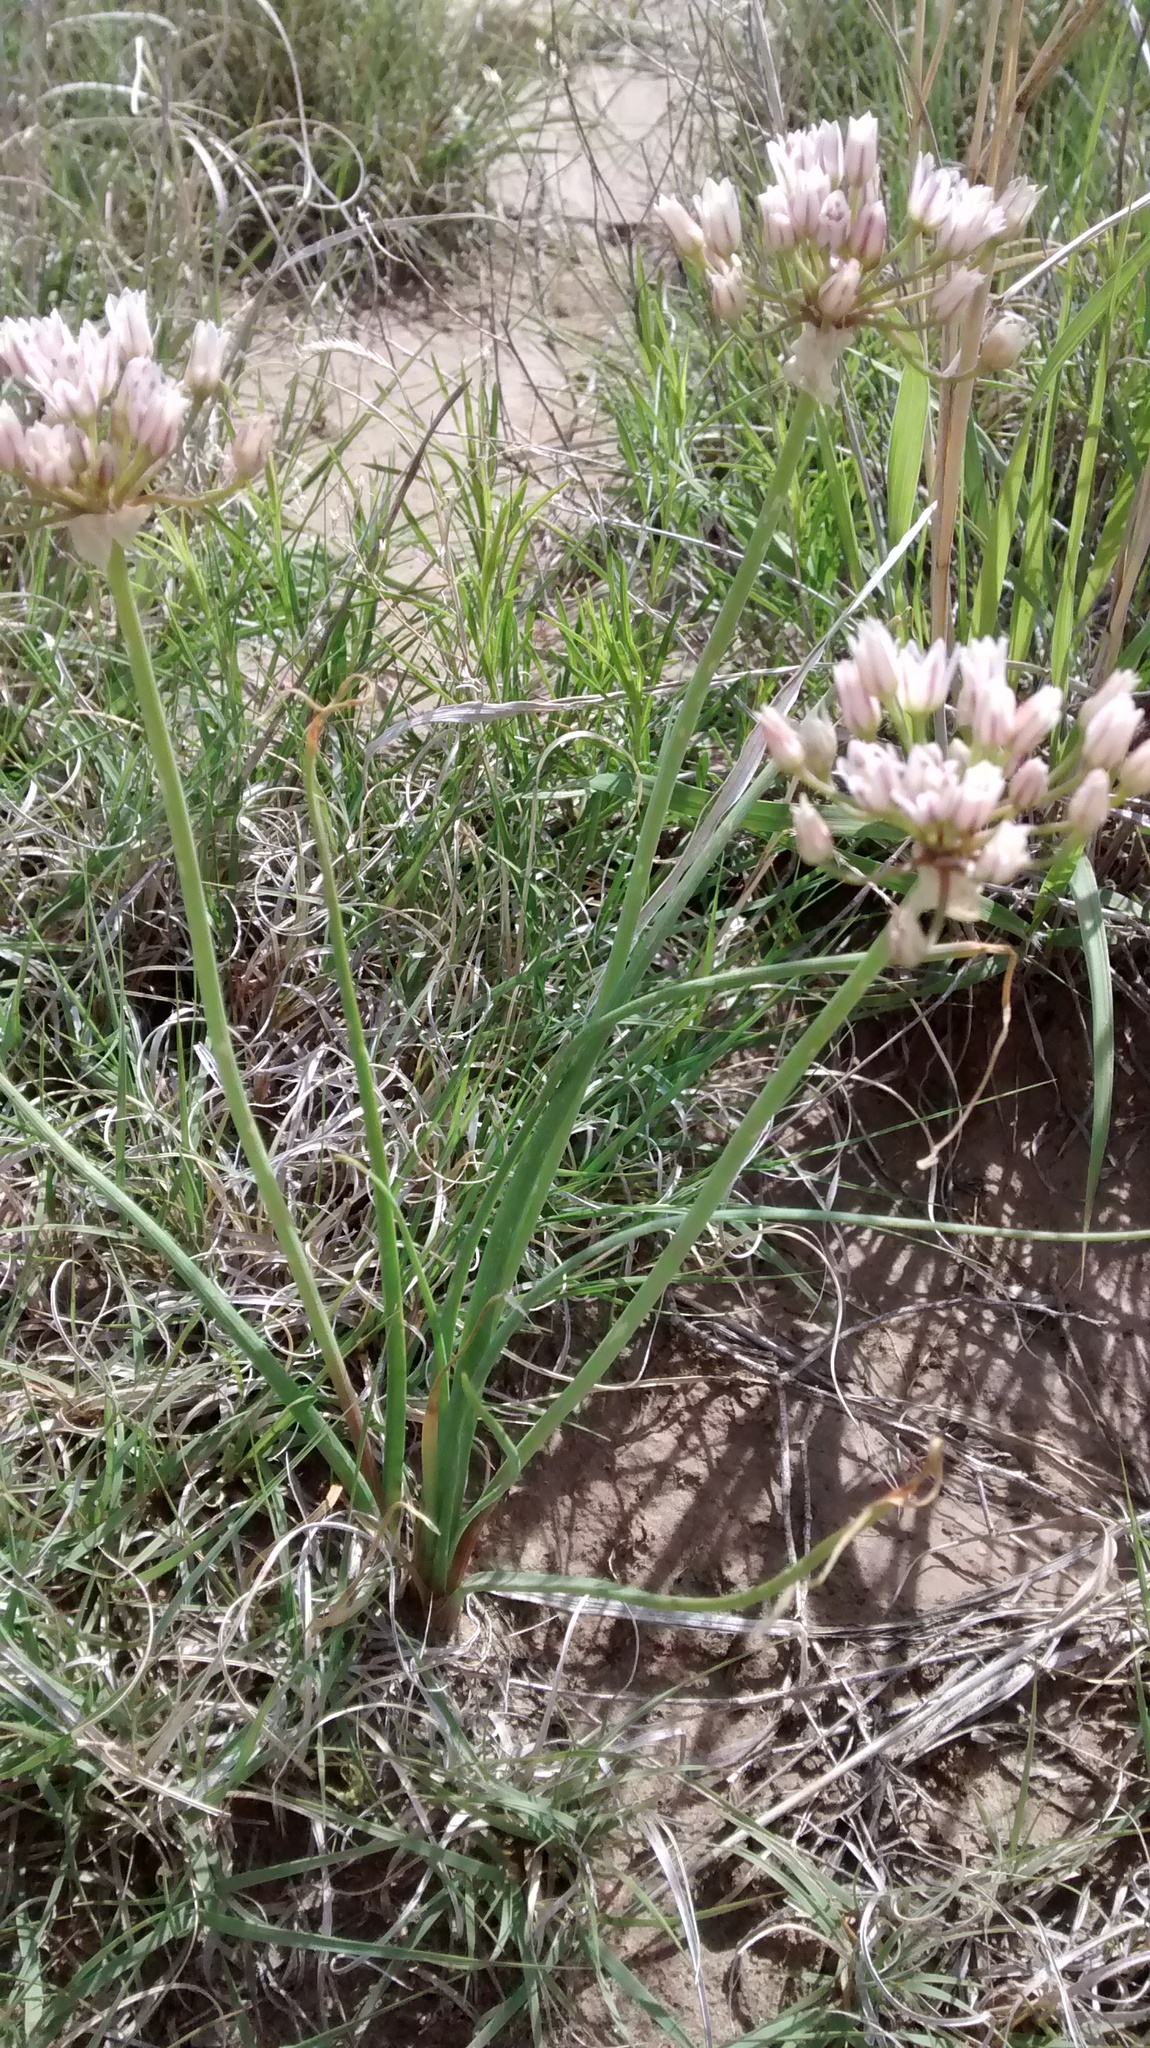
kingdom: Plantae
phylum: Tracheophyta
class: Liliopsida
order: Asparagales
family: Amaryllidaceae
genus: Allium
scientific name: Allium drummondii
